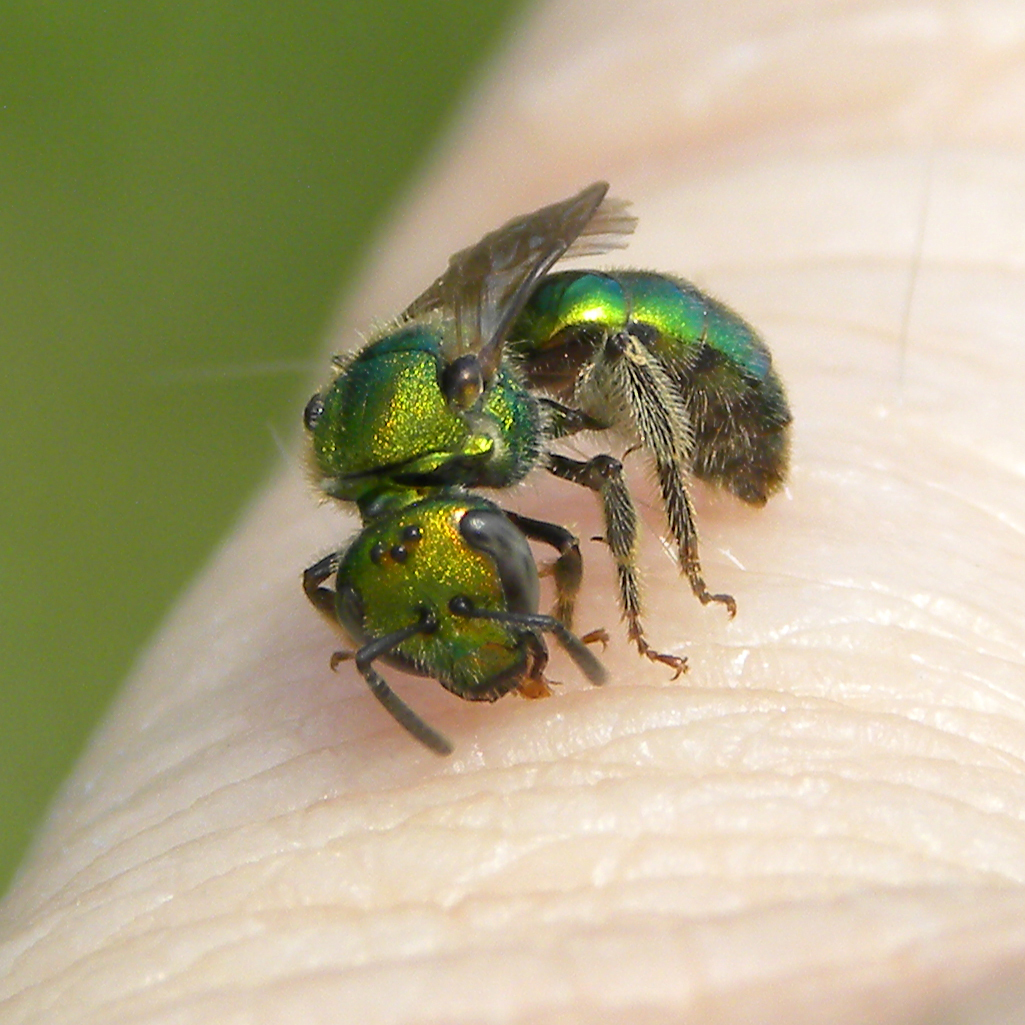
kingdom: Animalia
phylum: Arthropoda
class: Insecta
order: Hymenoptera
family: Halictidae
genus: Augochlorella
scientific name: Augochlorella
